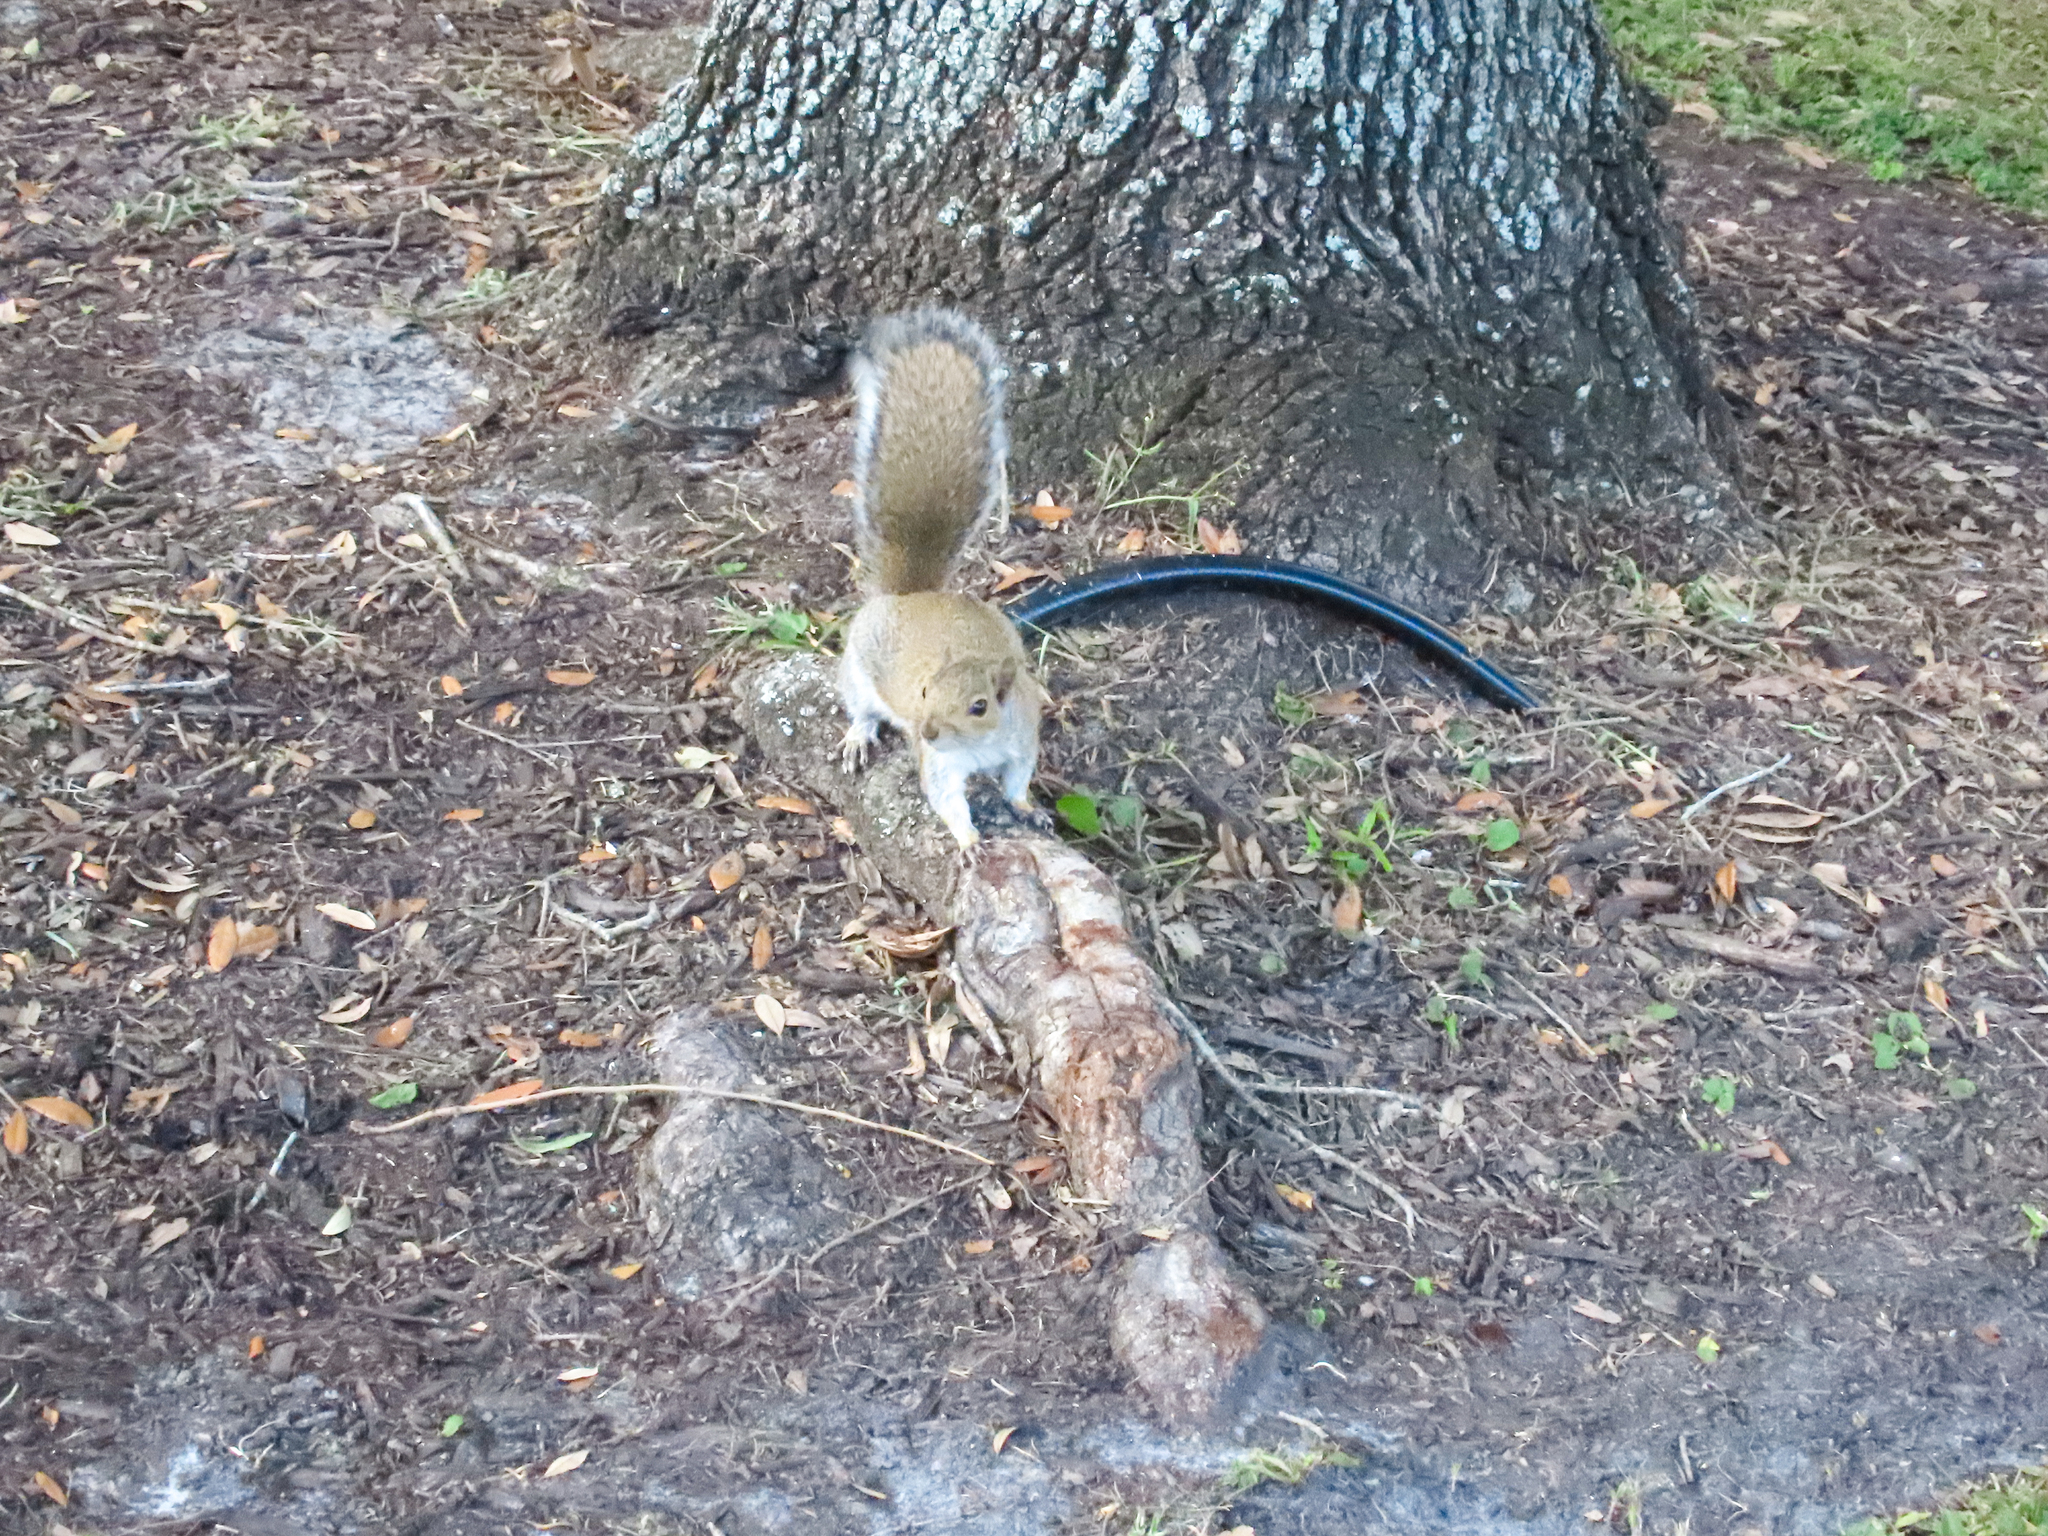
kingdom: Animalia
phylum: Chordata
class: Mammalia
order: Rodentia
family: Sciuridae
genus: Sciurus
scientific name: Sciurus carolinensis
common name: Eastern gray squirrel
